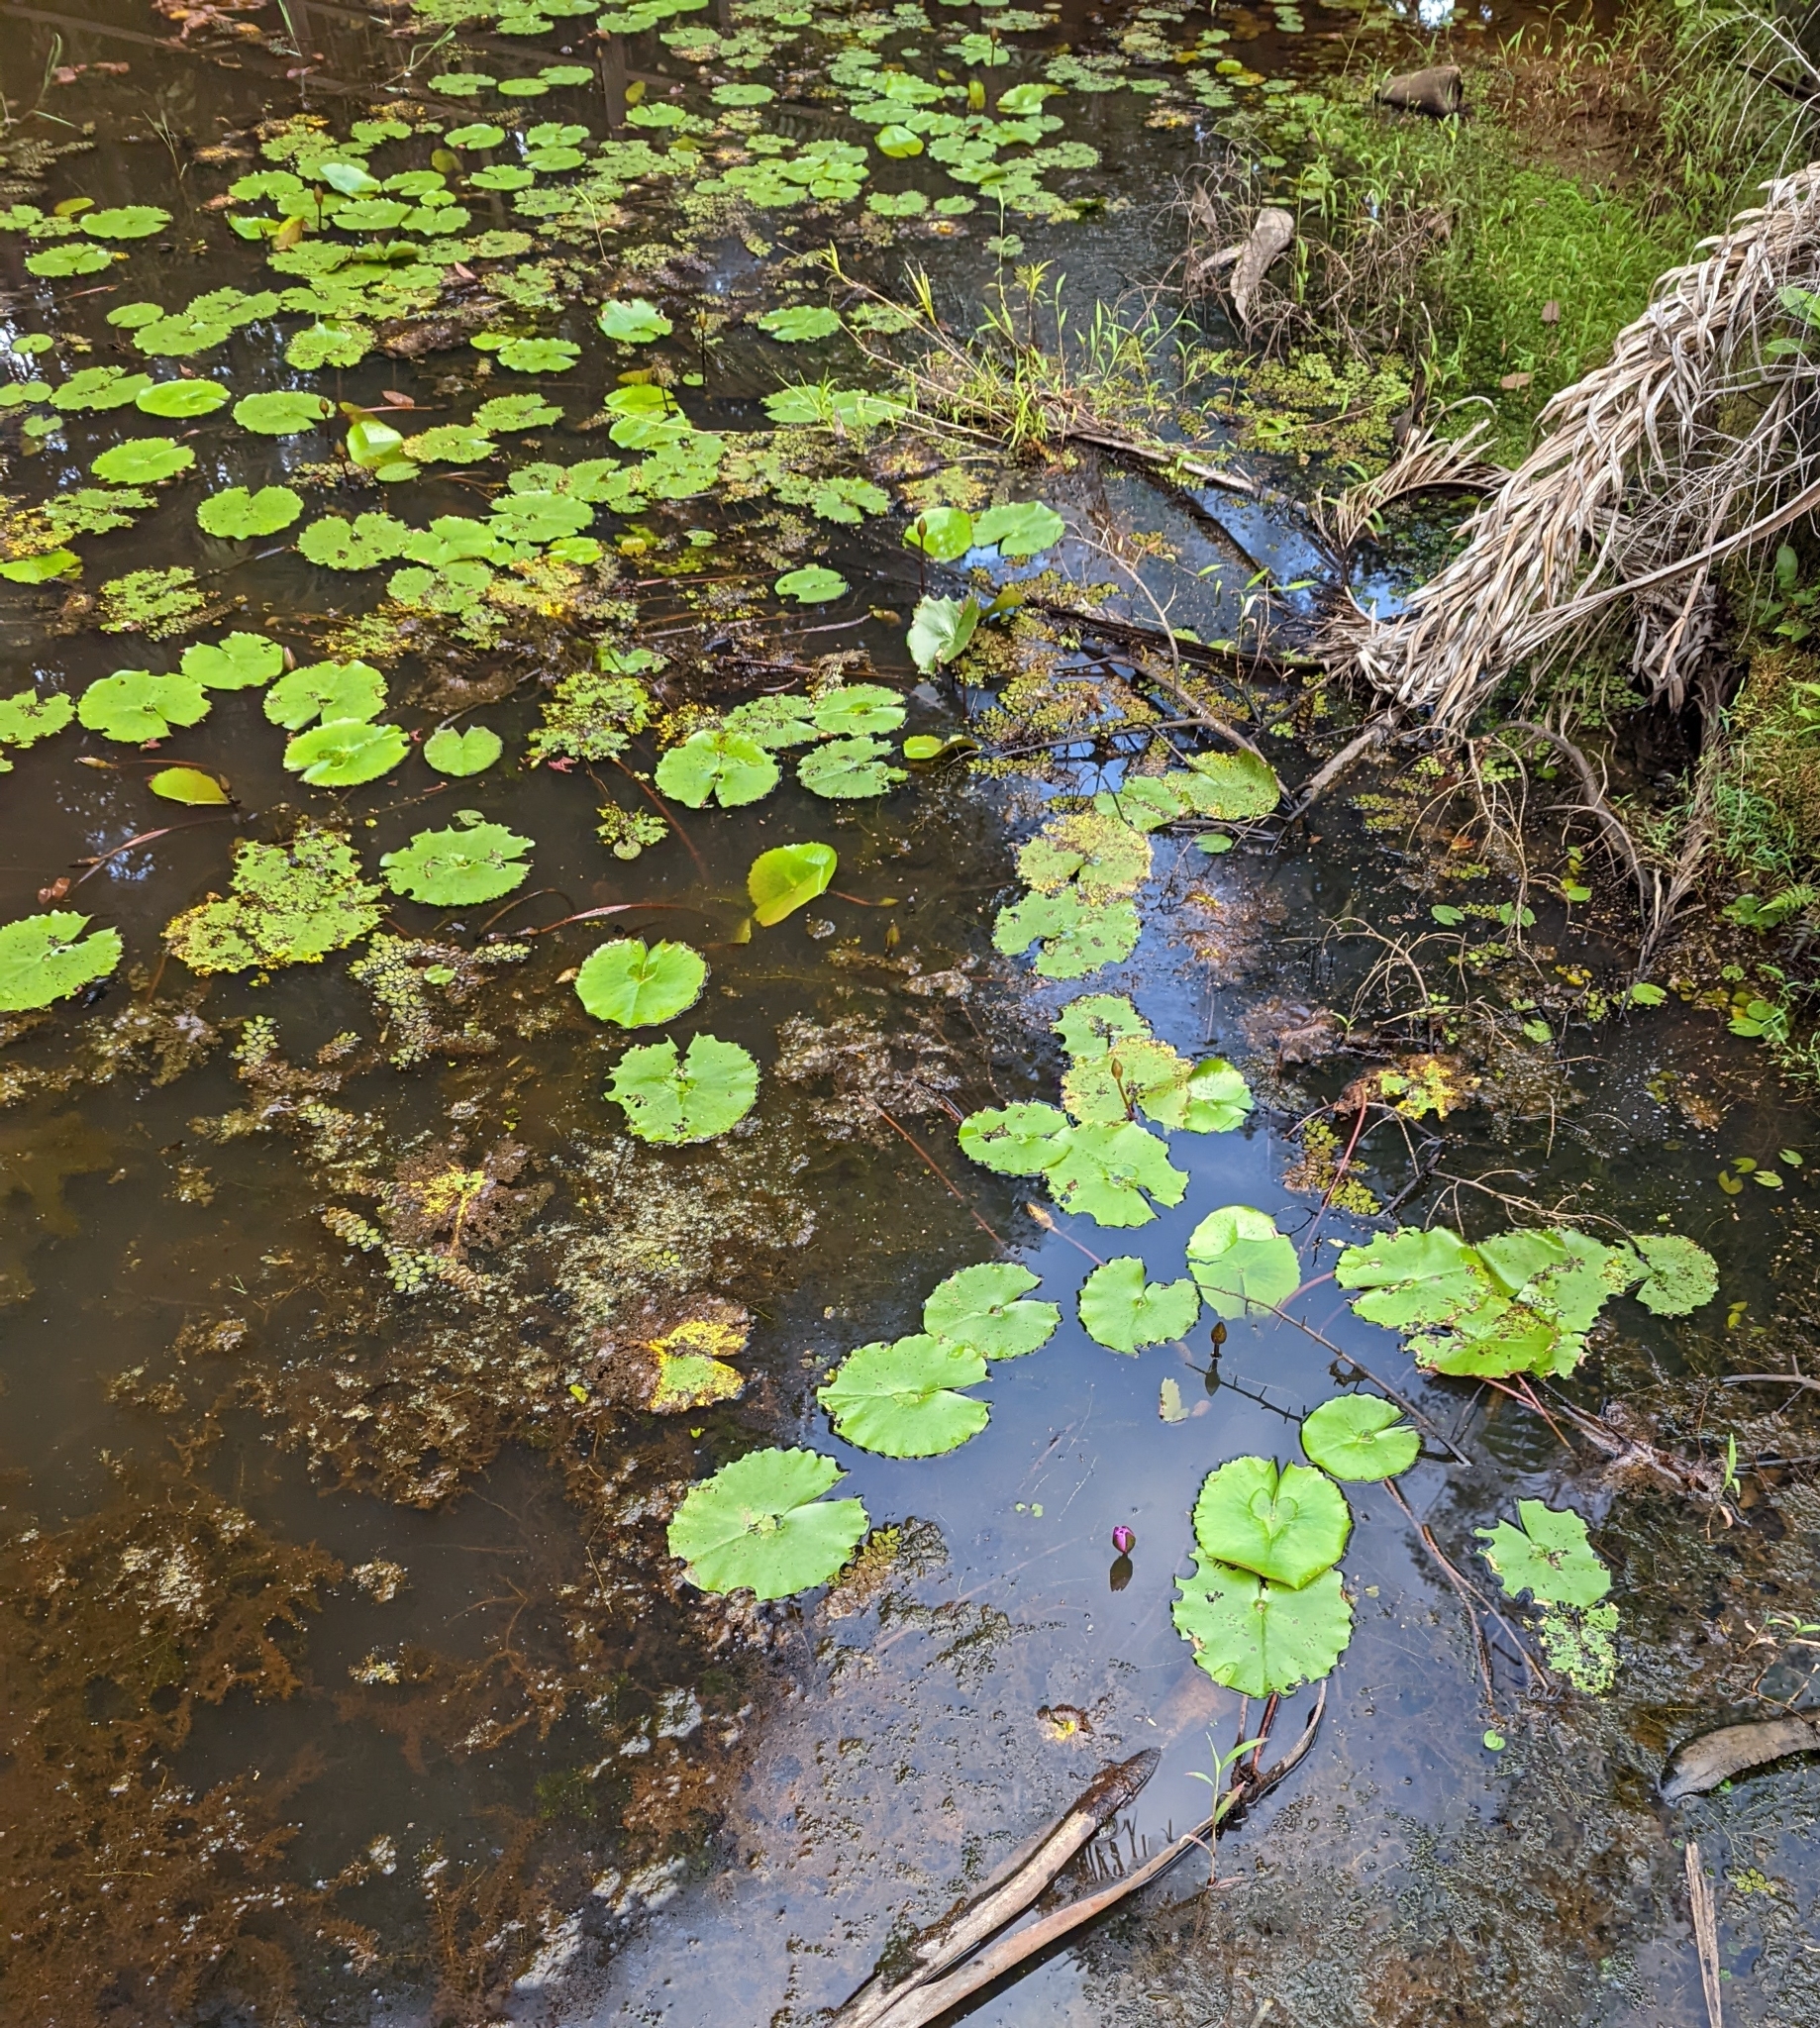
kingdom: Plantae
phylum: Tracheophyta
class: Magnoliopsida
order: Nymphaeales
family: Nymphaeaceae
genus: Nymphaea
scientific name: Nymphaea nouchali
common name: Blue lotus
